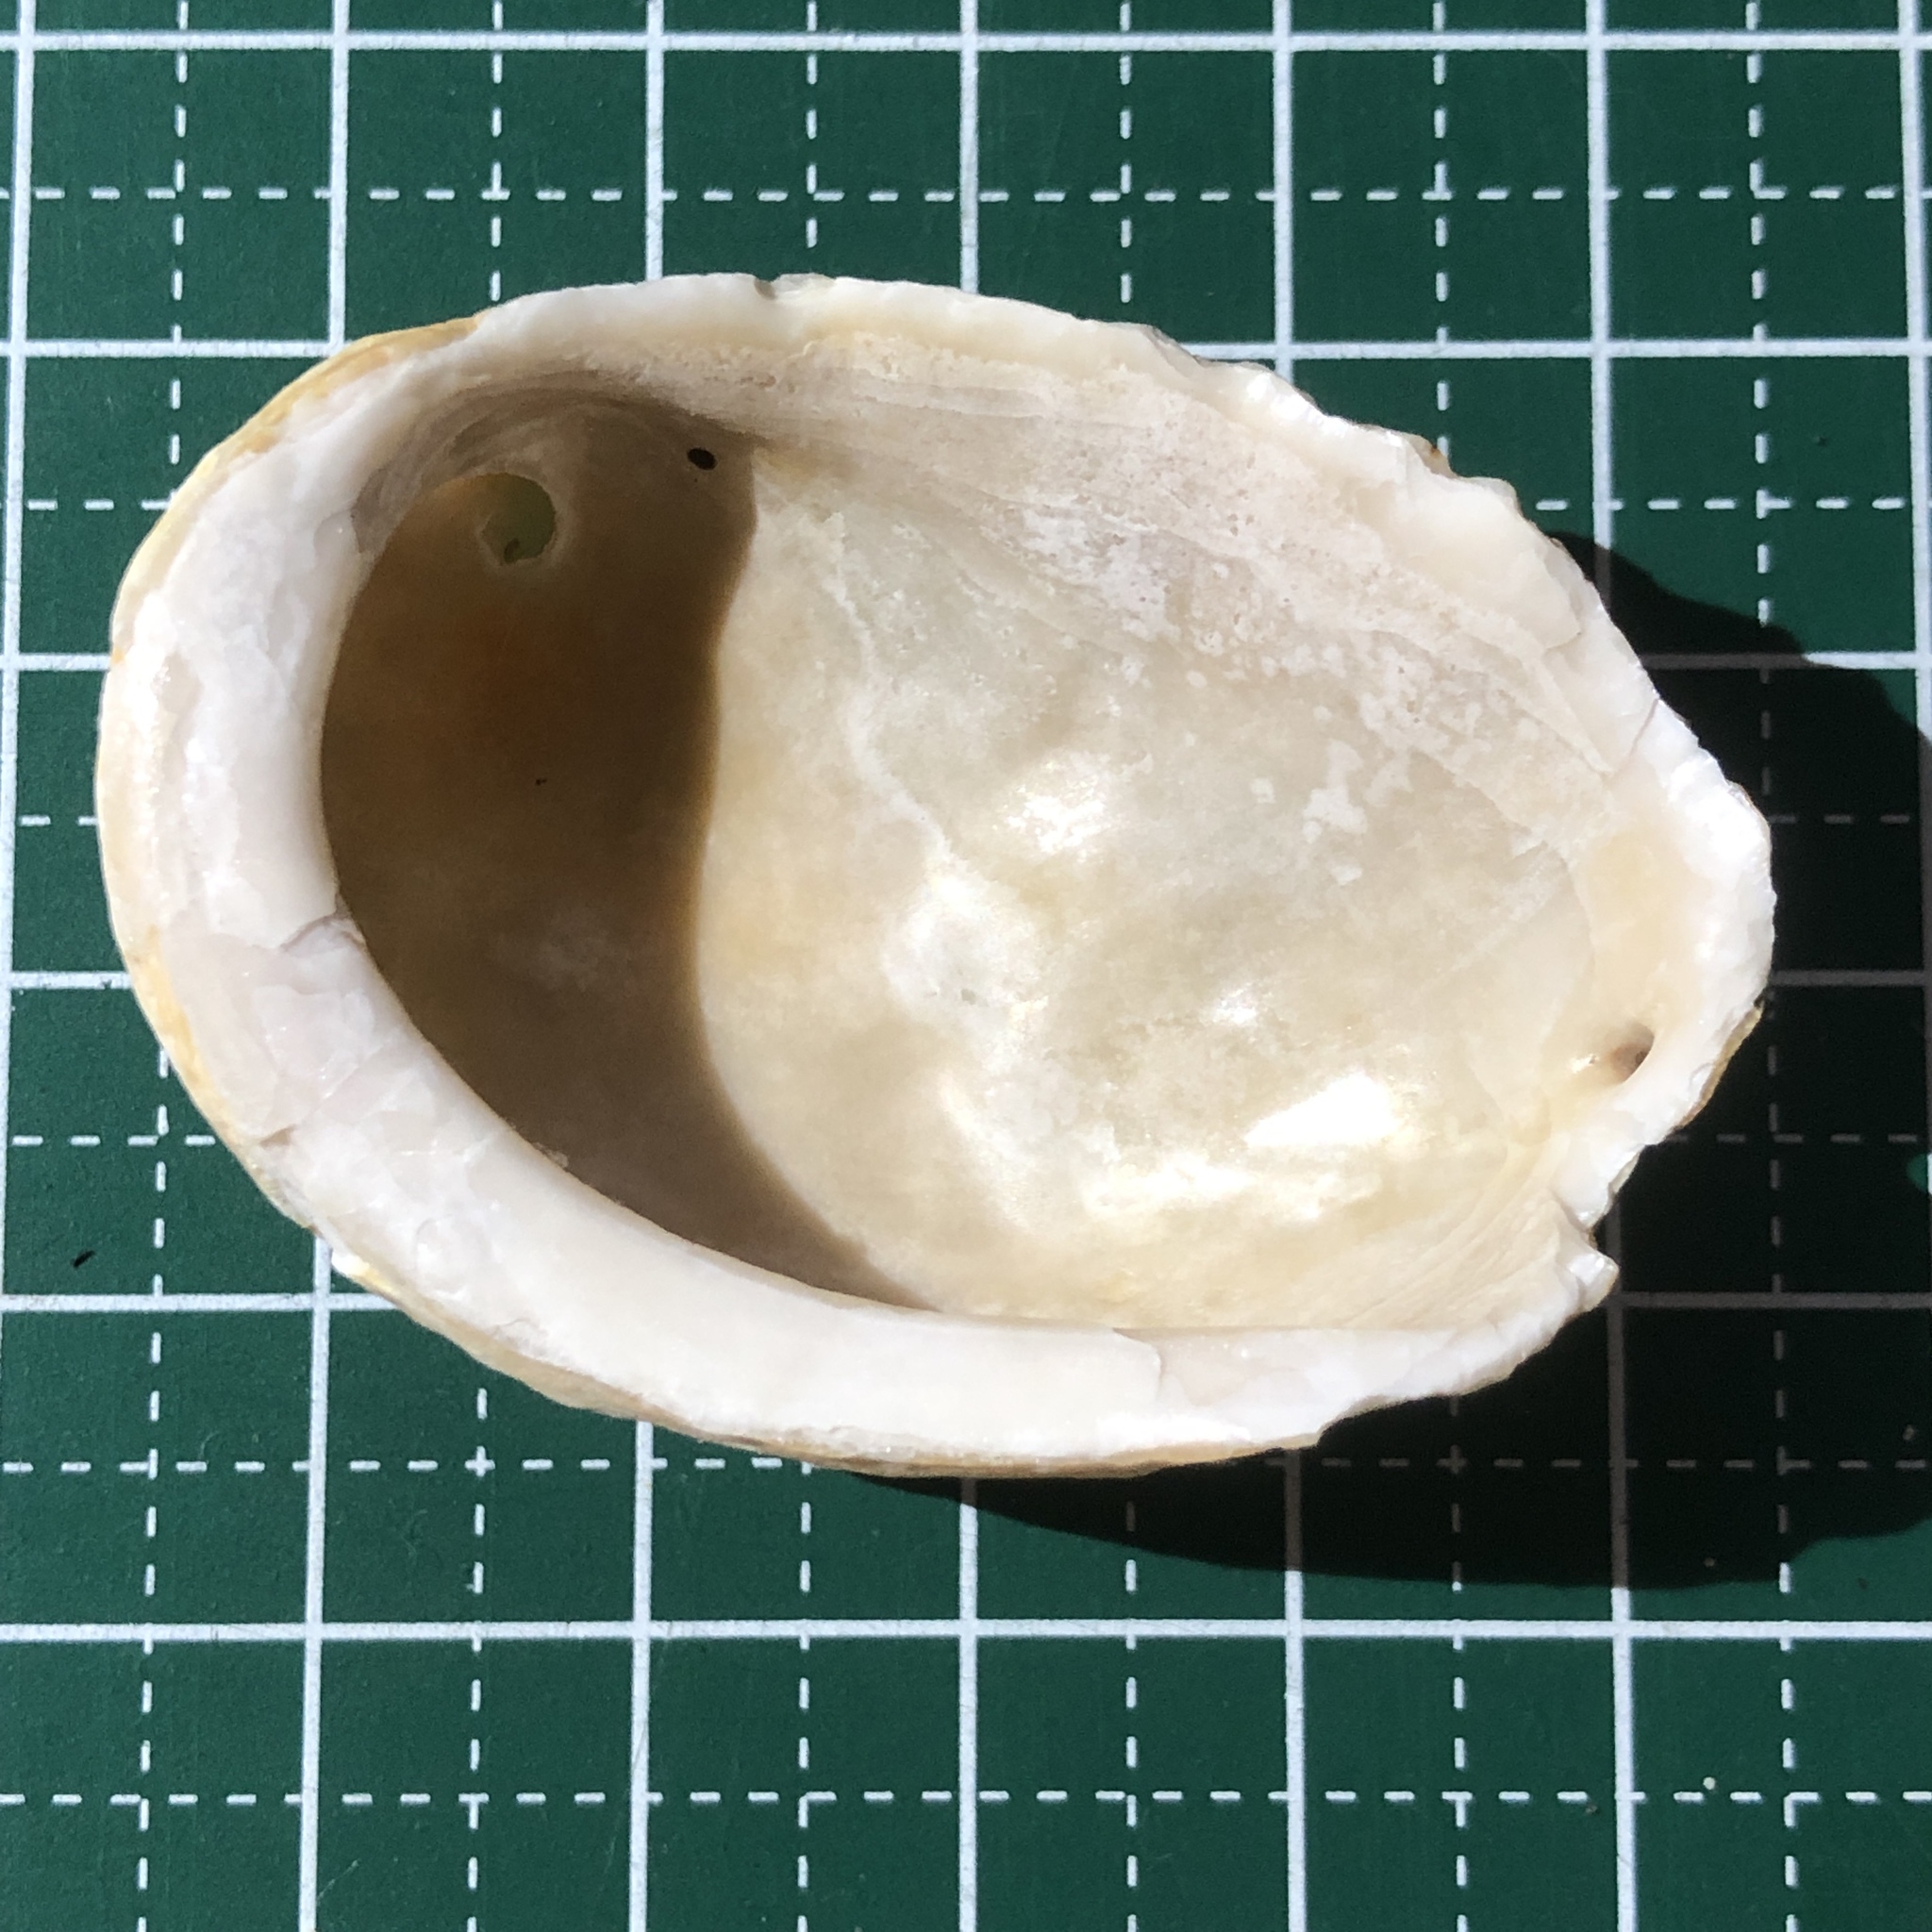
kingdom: Animalia
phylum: Mollusca
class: Gastropoda
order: Lepetellida
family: Haliotidae
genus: Haliotis
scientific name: Haliotis varia
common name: Variable abalone
